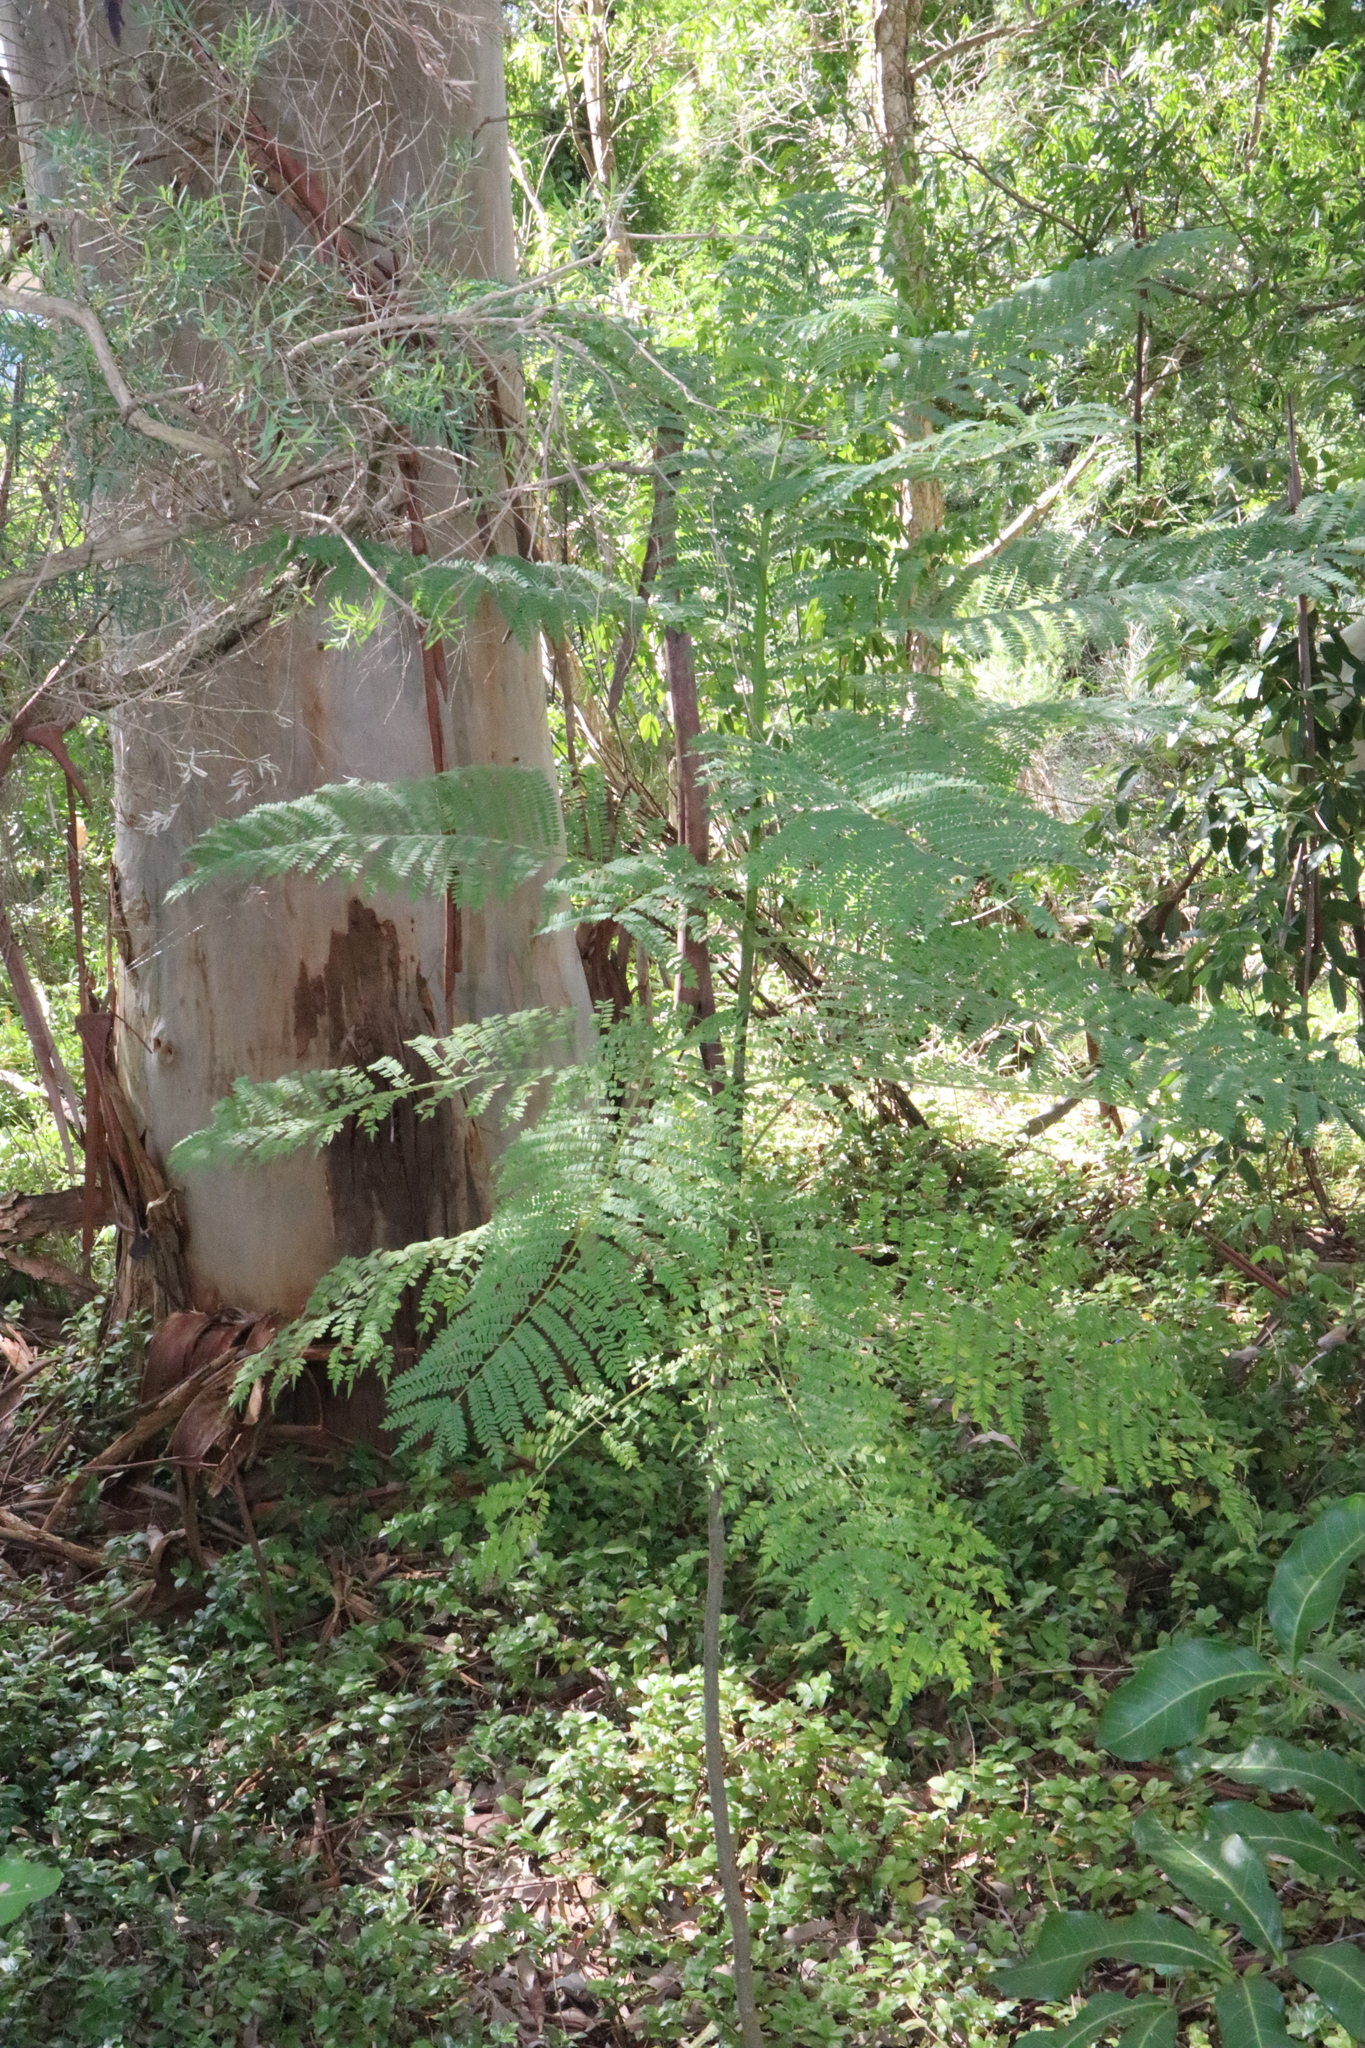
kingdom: Plantae
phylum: Tracheophyta
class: Magnoliopsida
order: Lamiales
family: Bignoniaceae
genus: Jacaranda
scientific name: Jacaranda mimosifolia
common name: Black poui
